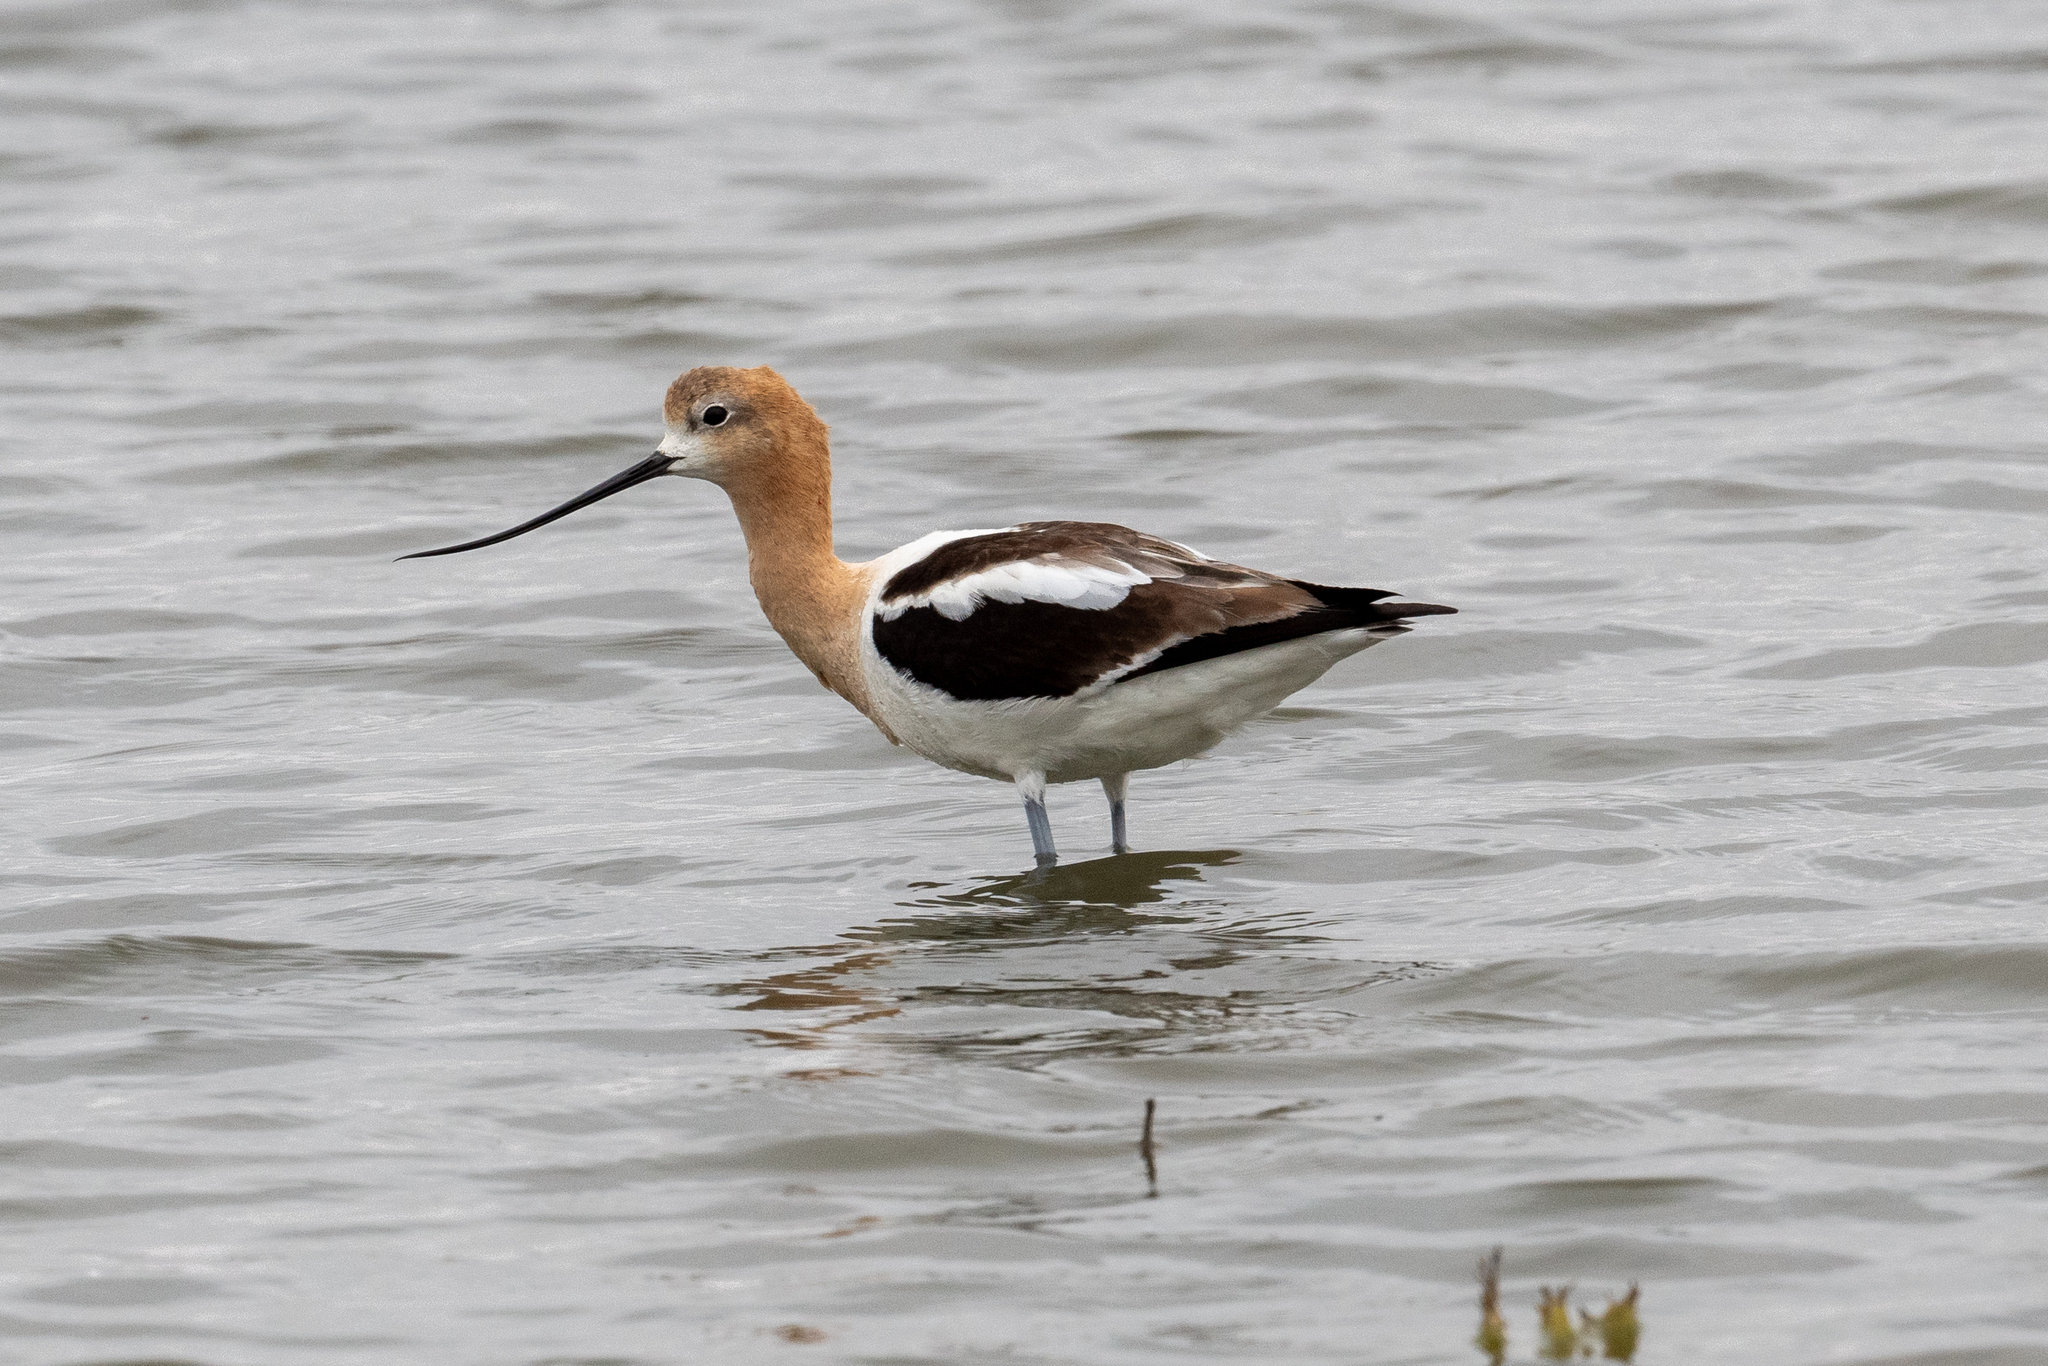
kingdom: Animalia
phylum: Chordata
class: Aves
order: Charadriiformes
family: Recurvirostridae
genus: Recurvirostra
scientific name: Recurvirostra americana
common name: American avocet
